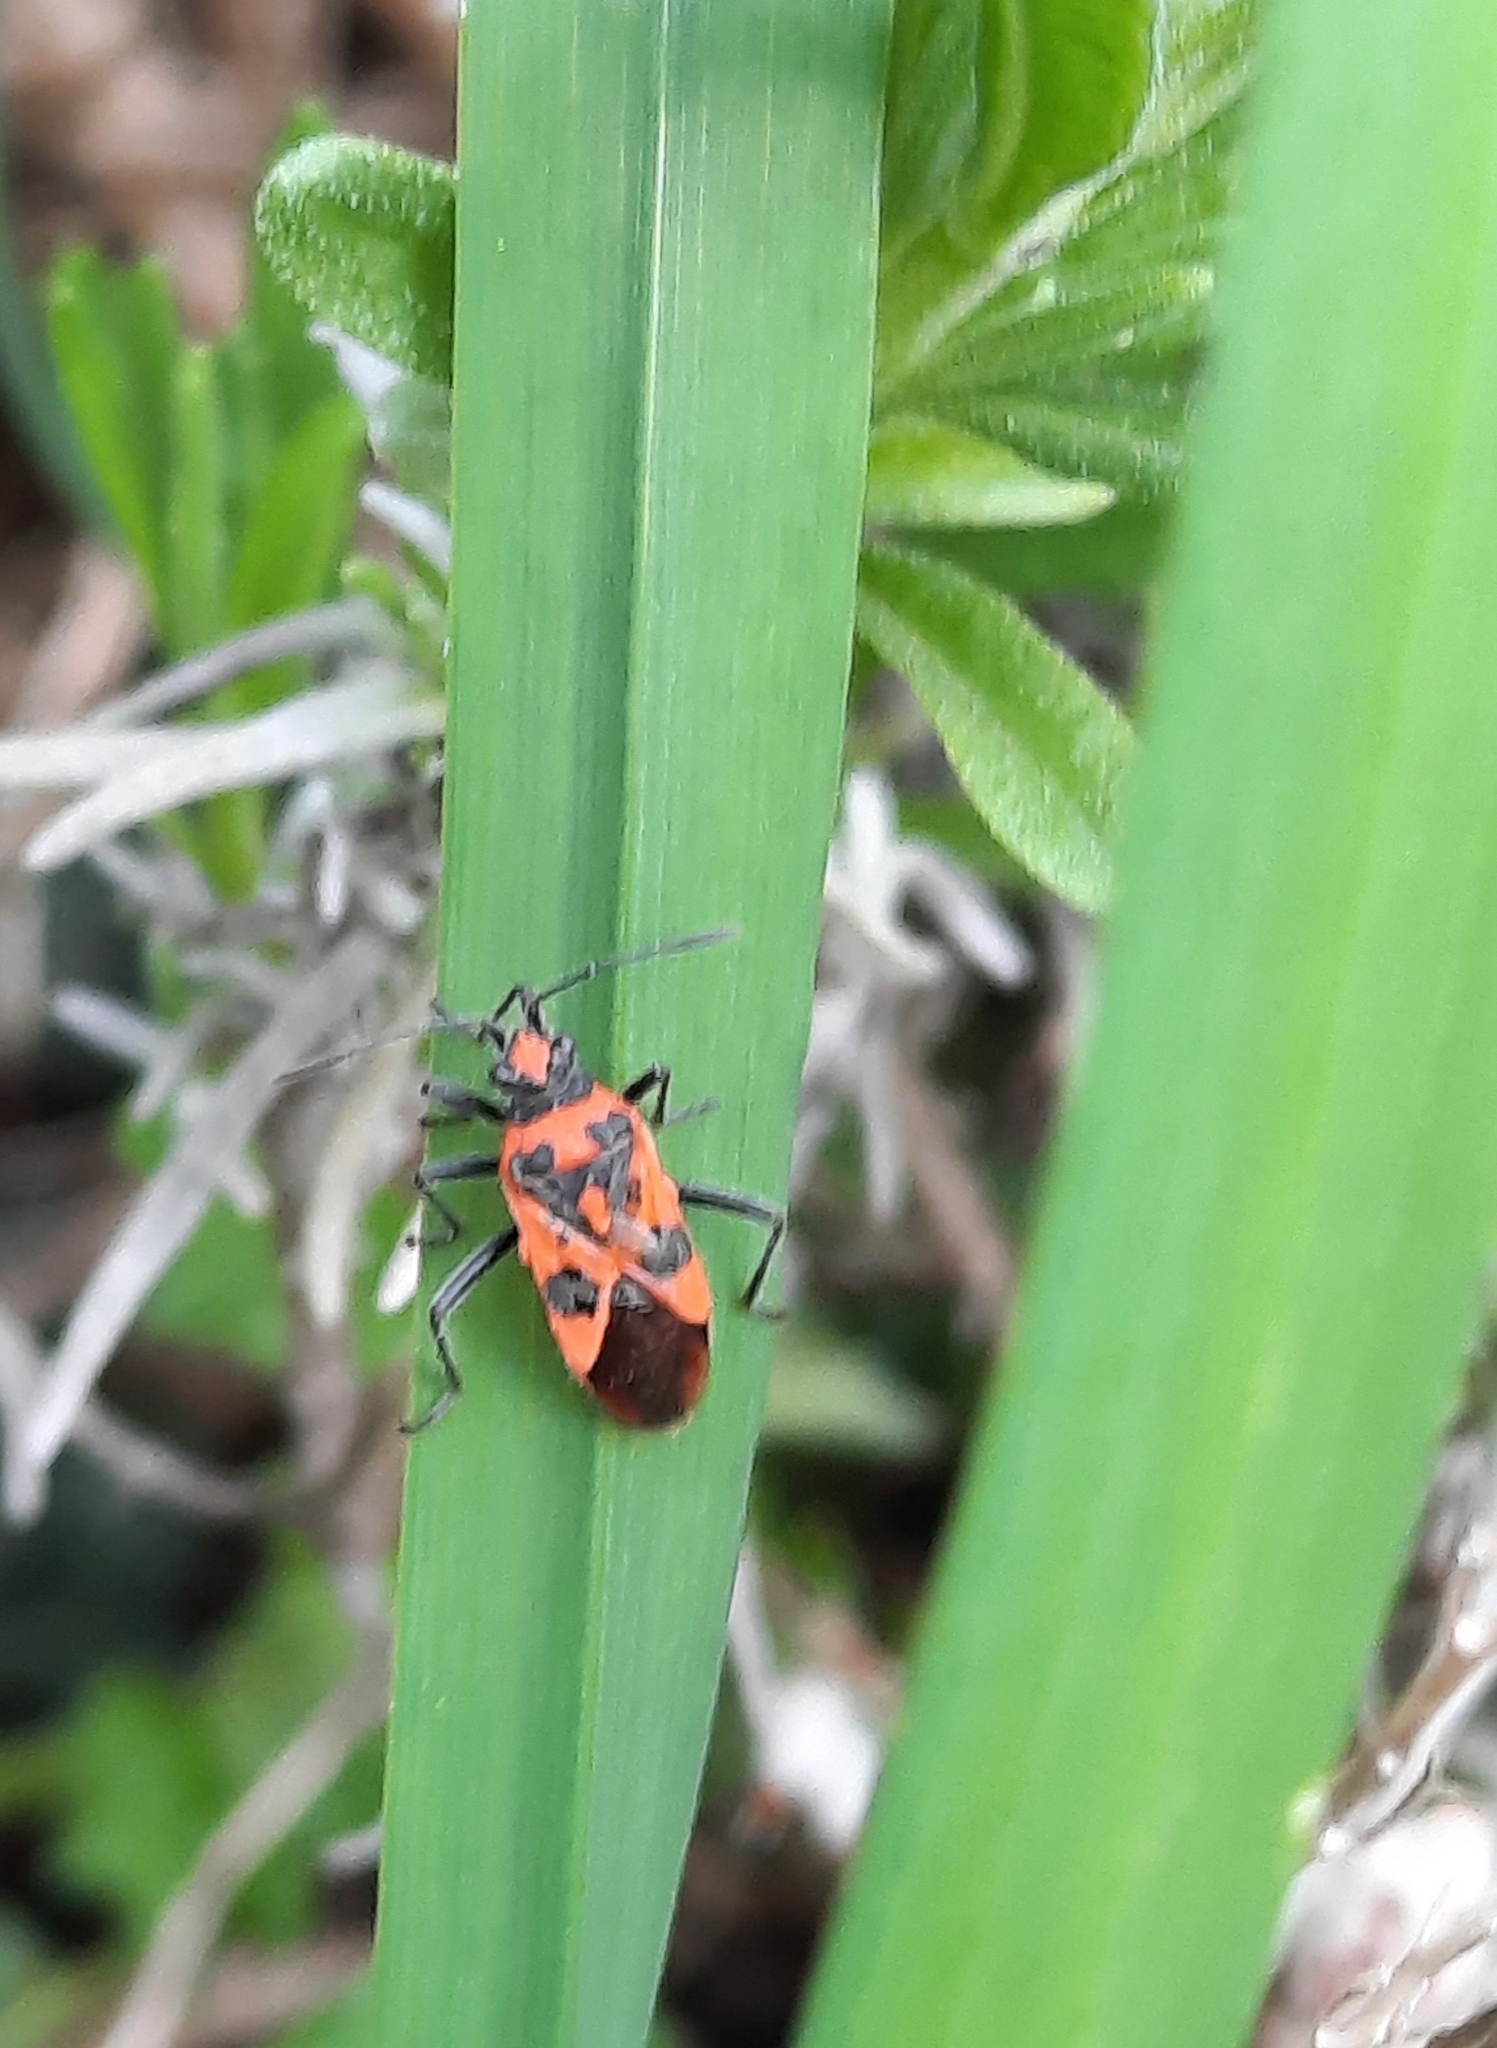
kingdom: Animalia
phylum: Arthropoda
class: Insecta
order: Hemiptera
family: Rhopalidae
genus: Corizus
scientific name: Corizus hyoscyami
